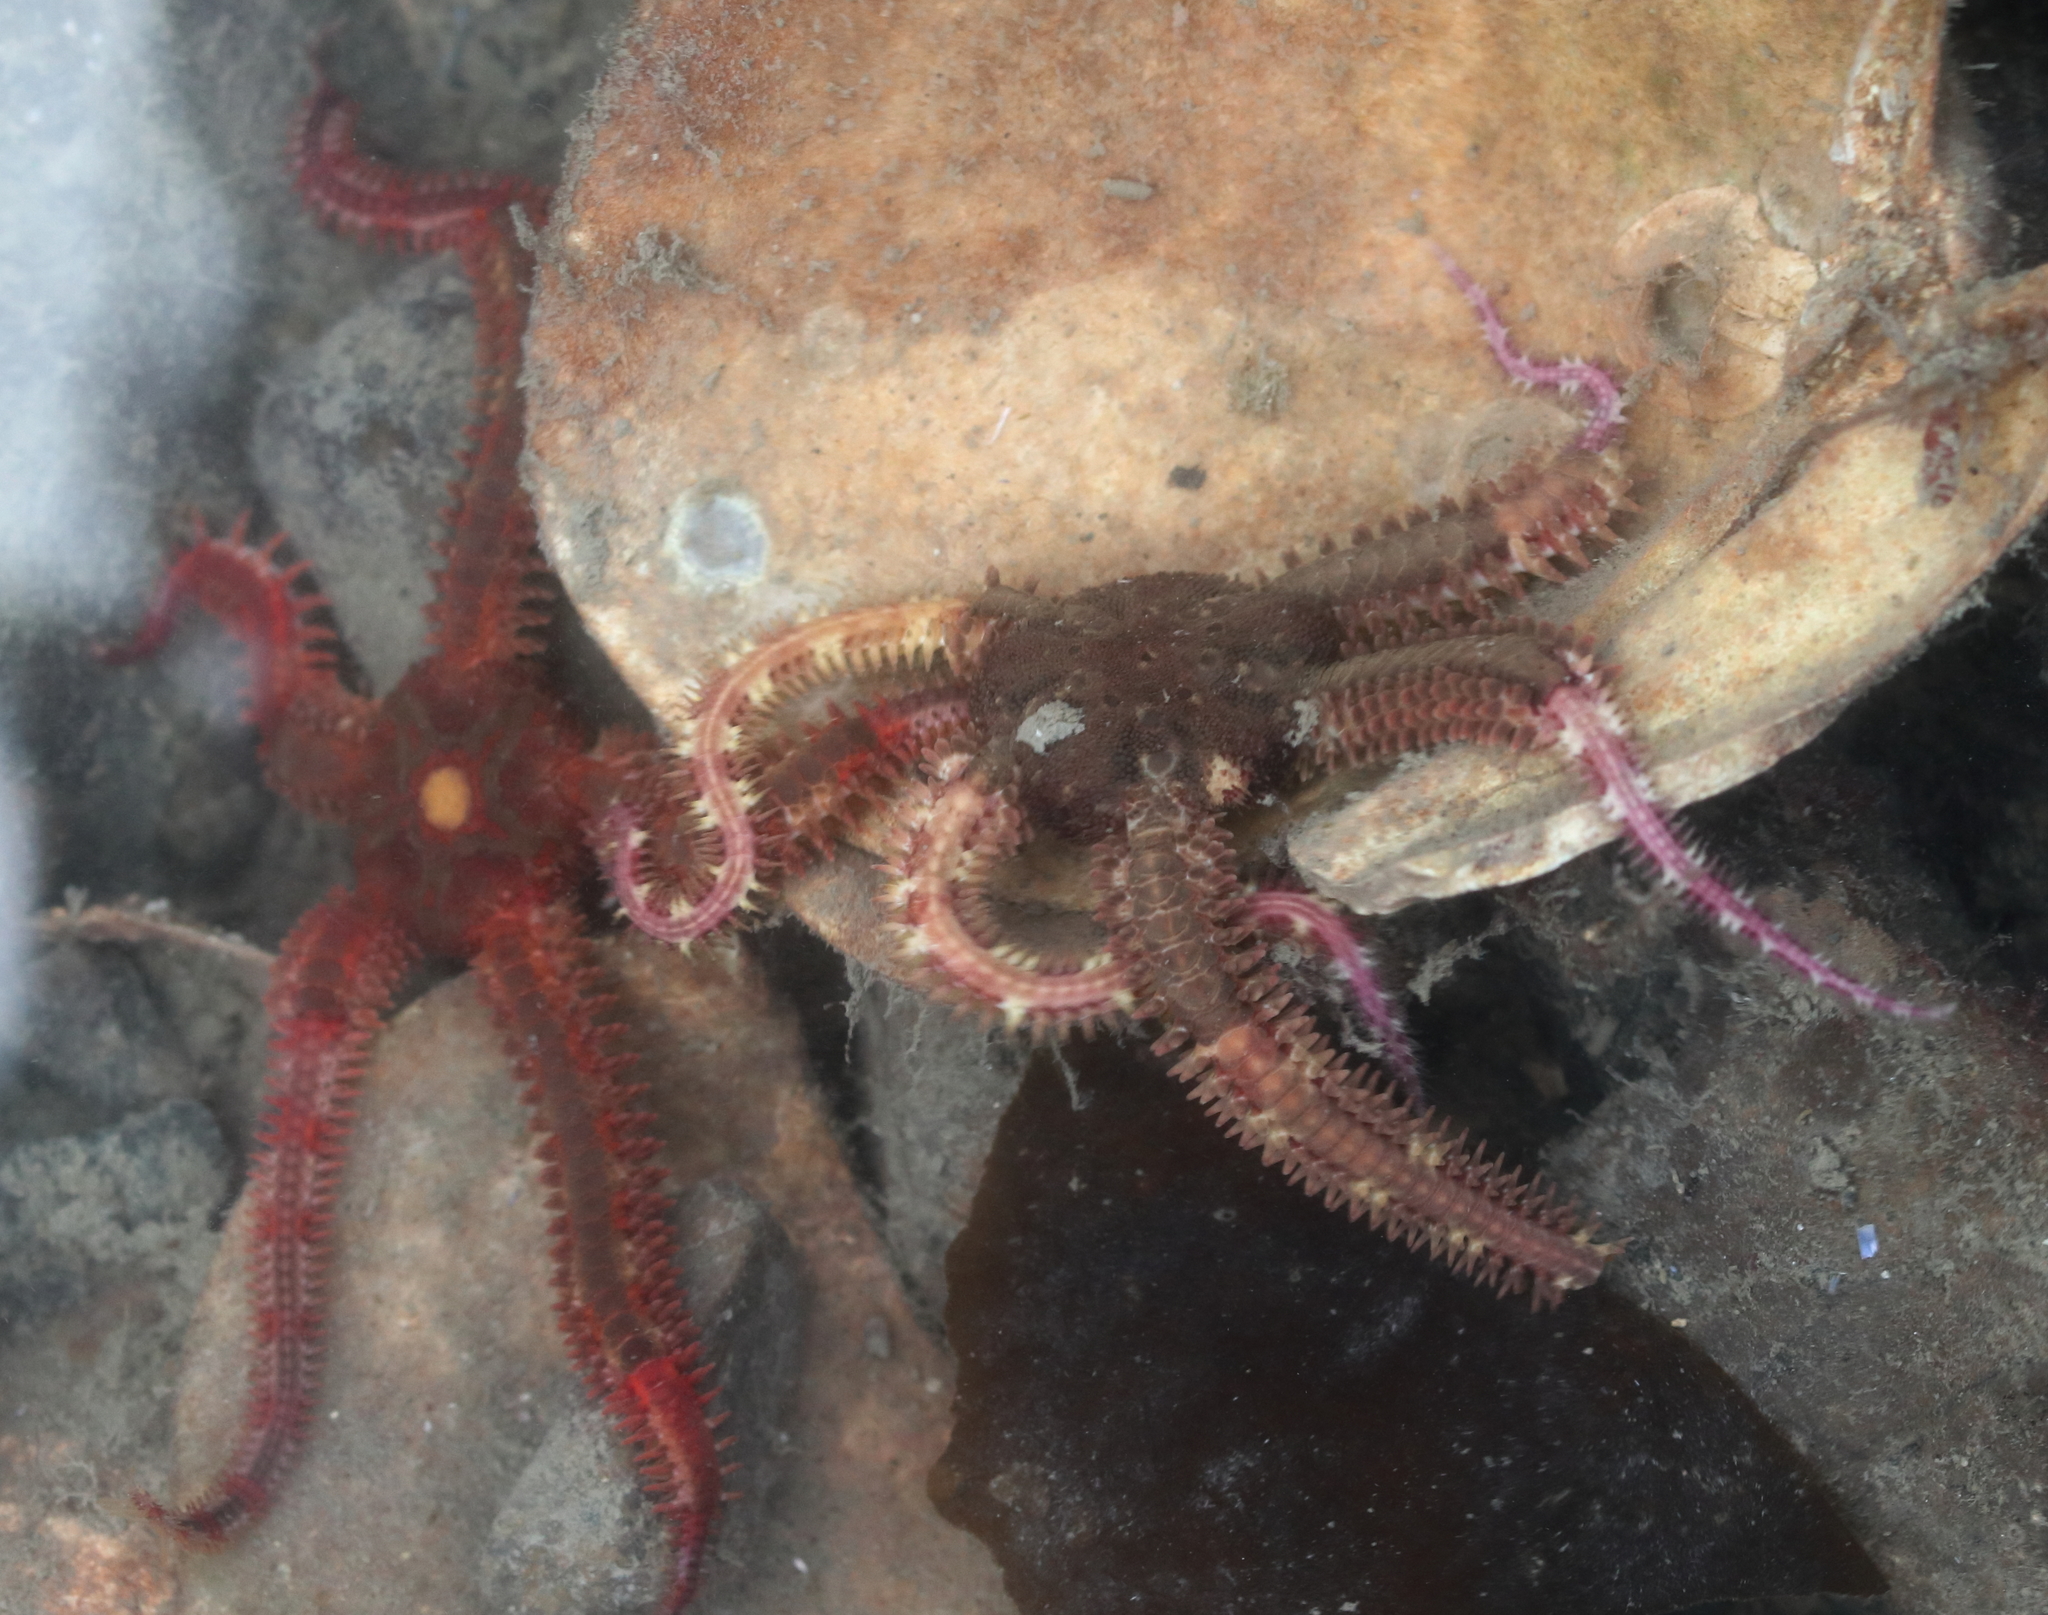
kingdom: Animalia
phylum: Echinodermata
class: Ophiuroidea
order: Amphilepidida
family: Ophiopholidae
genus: Ophiopholis
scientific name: Ophiopholis kennerlyi
